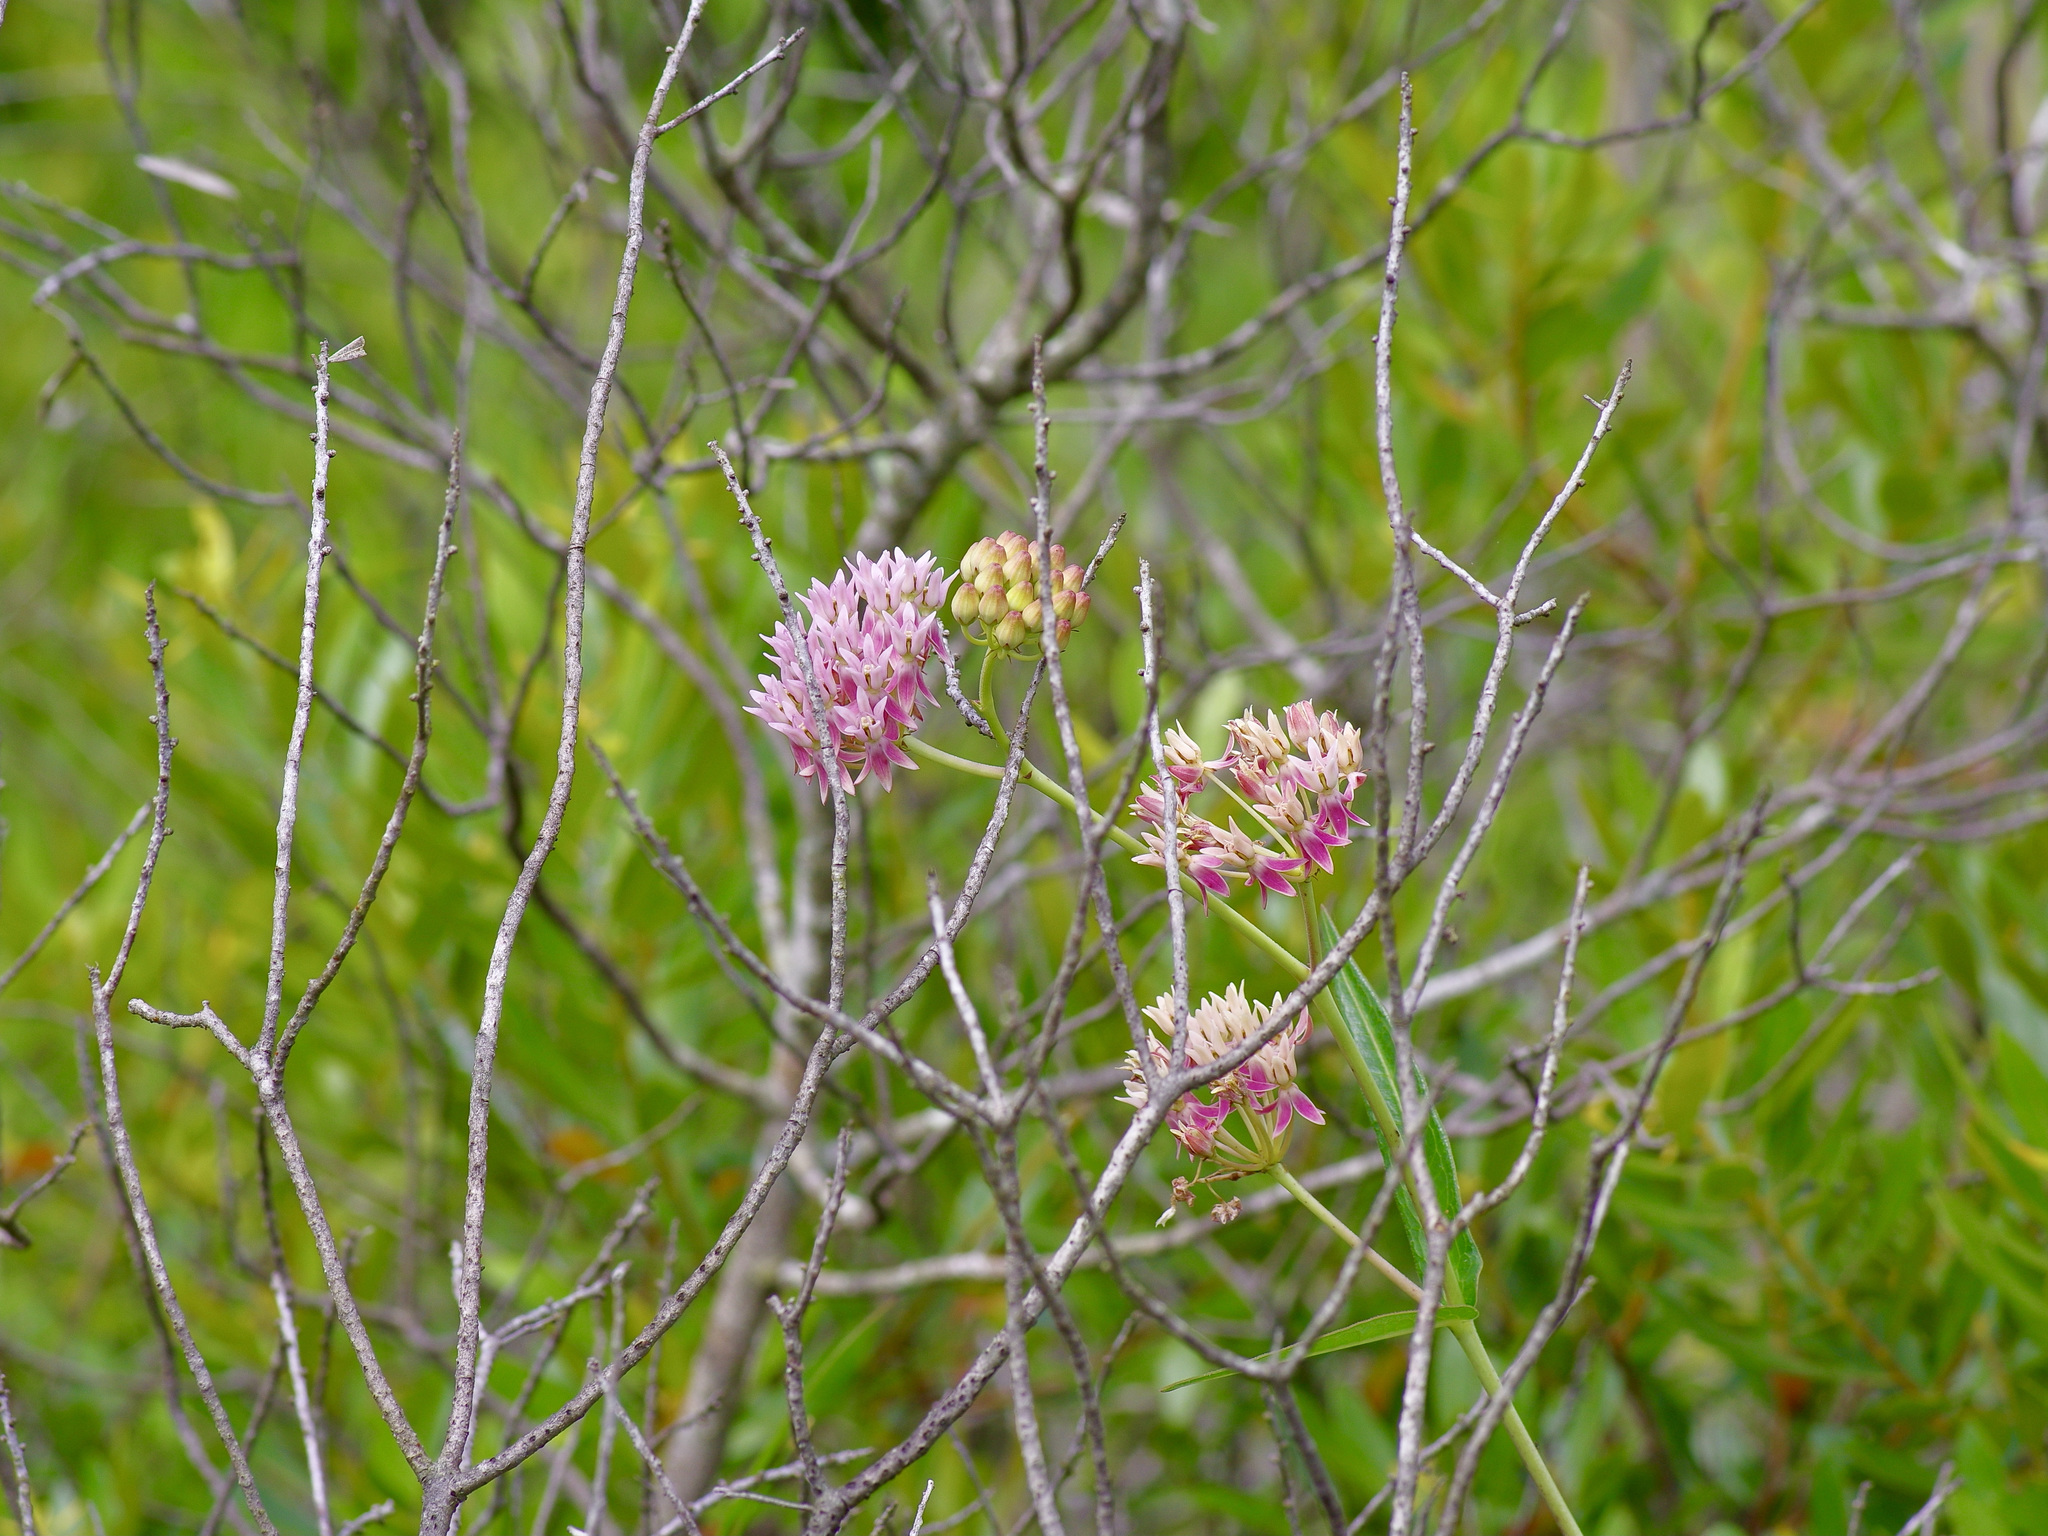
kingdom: Plantae
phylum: Tracheophyta
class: Magnoliopsida
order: Gentianales
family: Apocynaceae
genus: Asclepias
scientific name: Asclepias rubra
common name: Red milkweed
